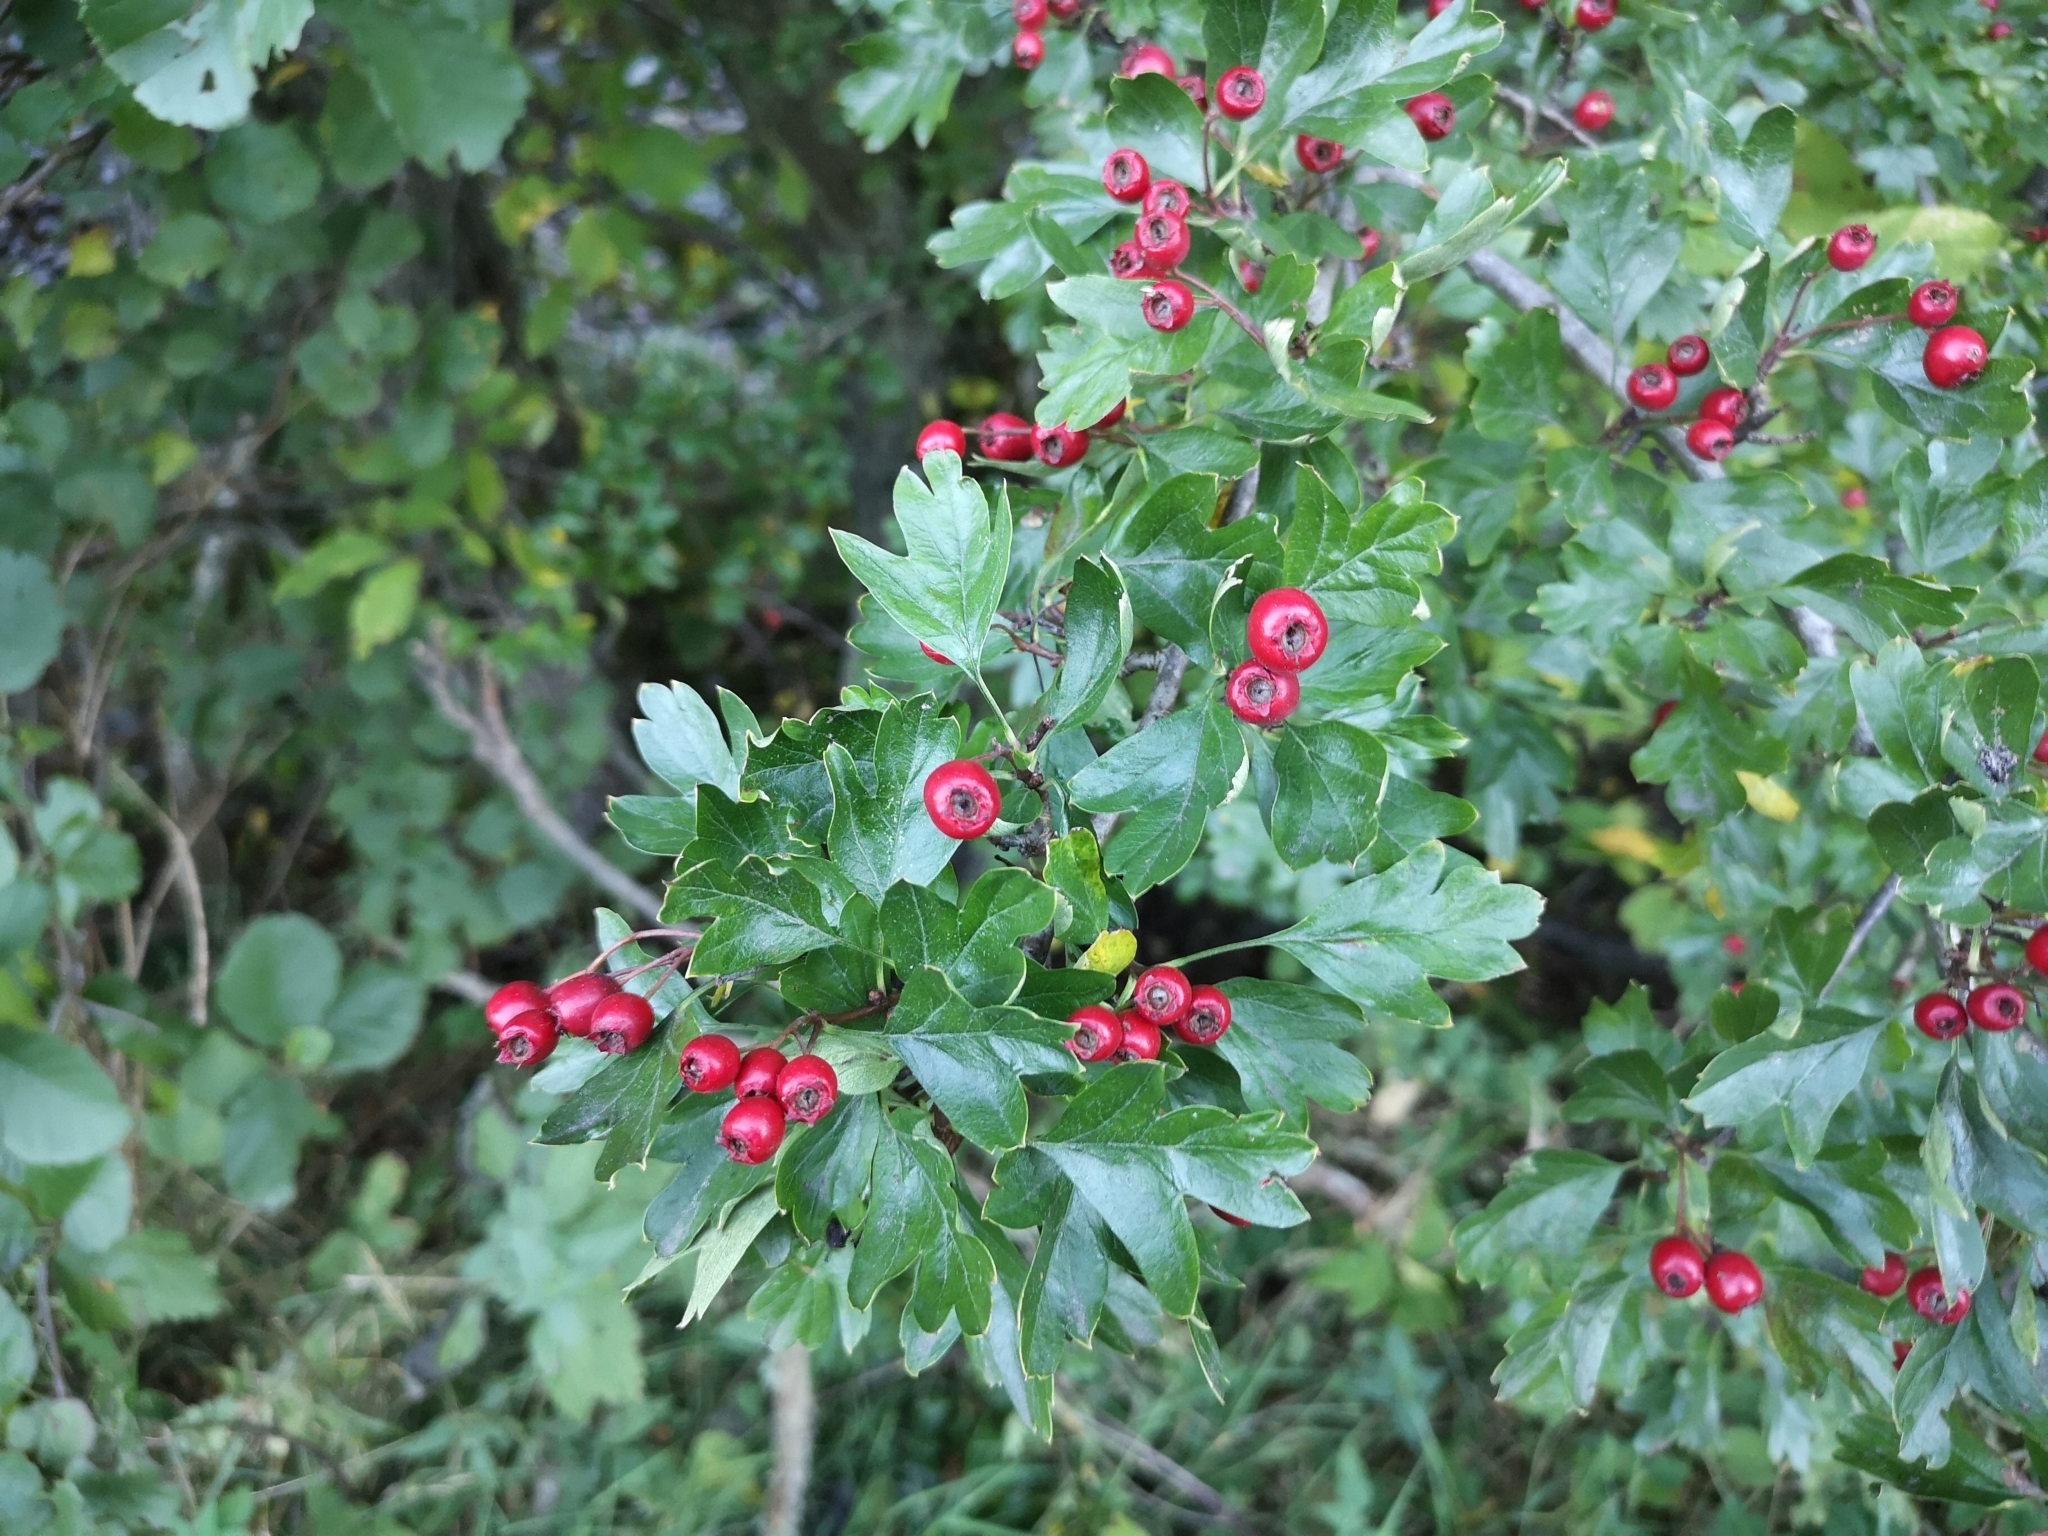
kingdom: Plantae
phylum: Tracheophyta
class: Magnoliopsida
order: Rosales
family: Rosaceae
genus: Crataegus
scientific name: Crataegus monogyna
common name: Hawthorn
